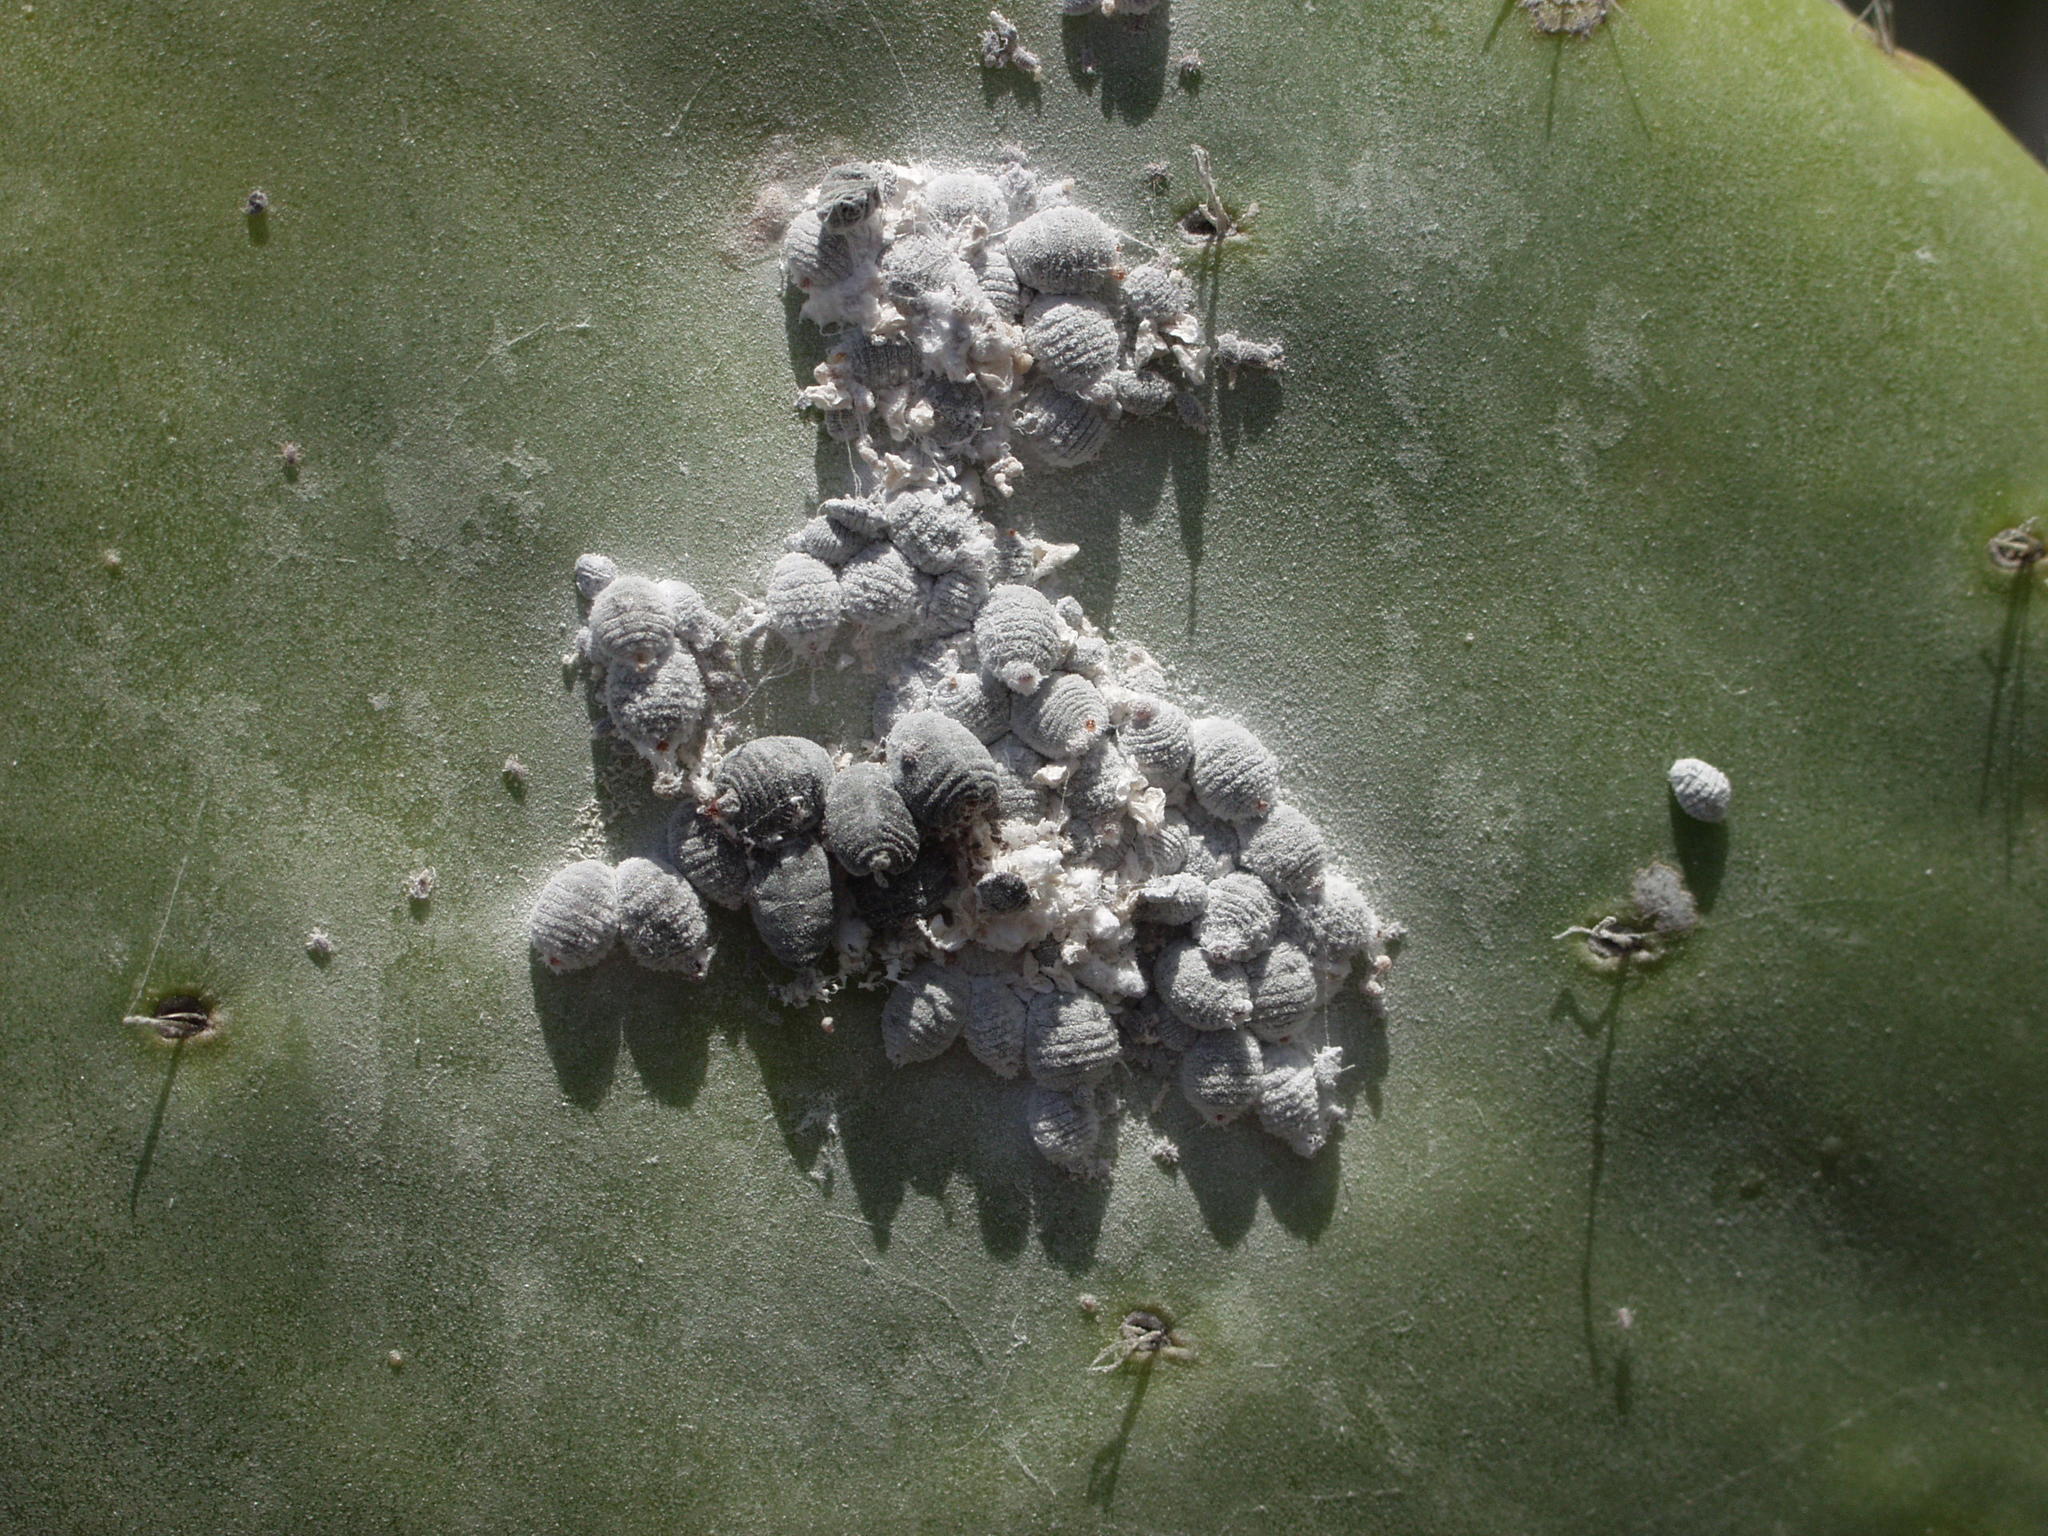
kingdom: Animalia
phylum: Arthropoda
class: Insecta
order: Hemiptera
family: Dactylopiidae
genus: Dactylopius
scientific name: Dactylopius coccus
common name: Cochineal
